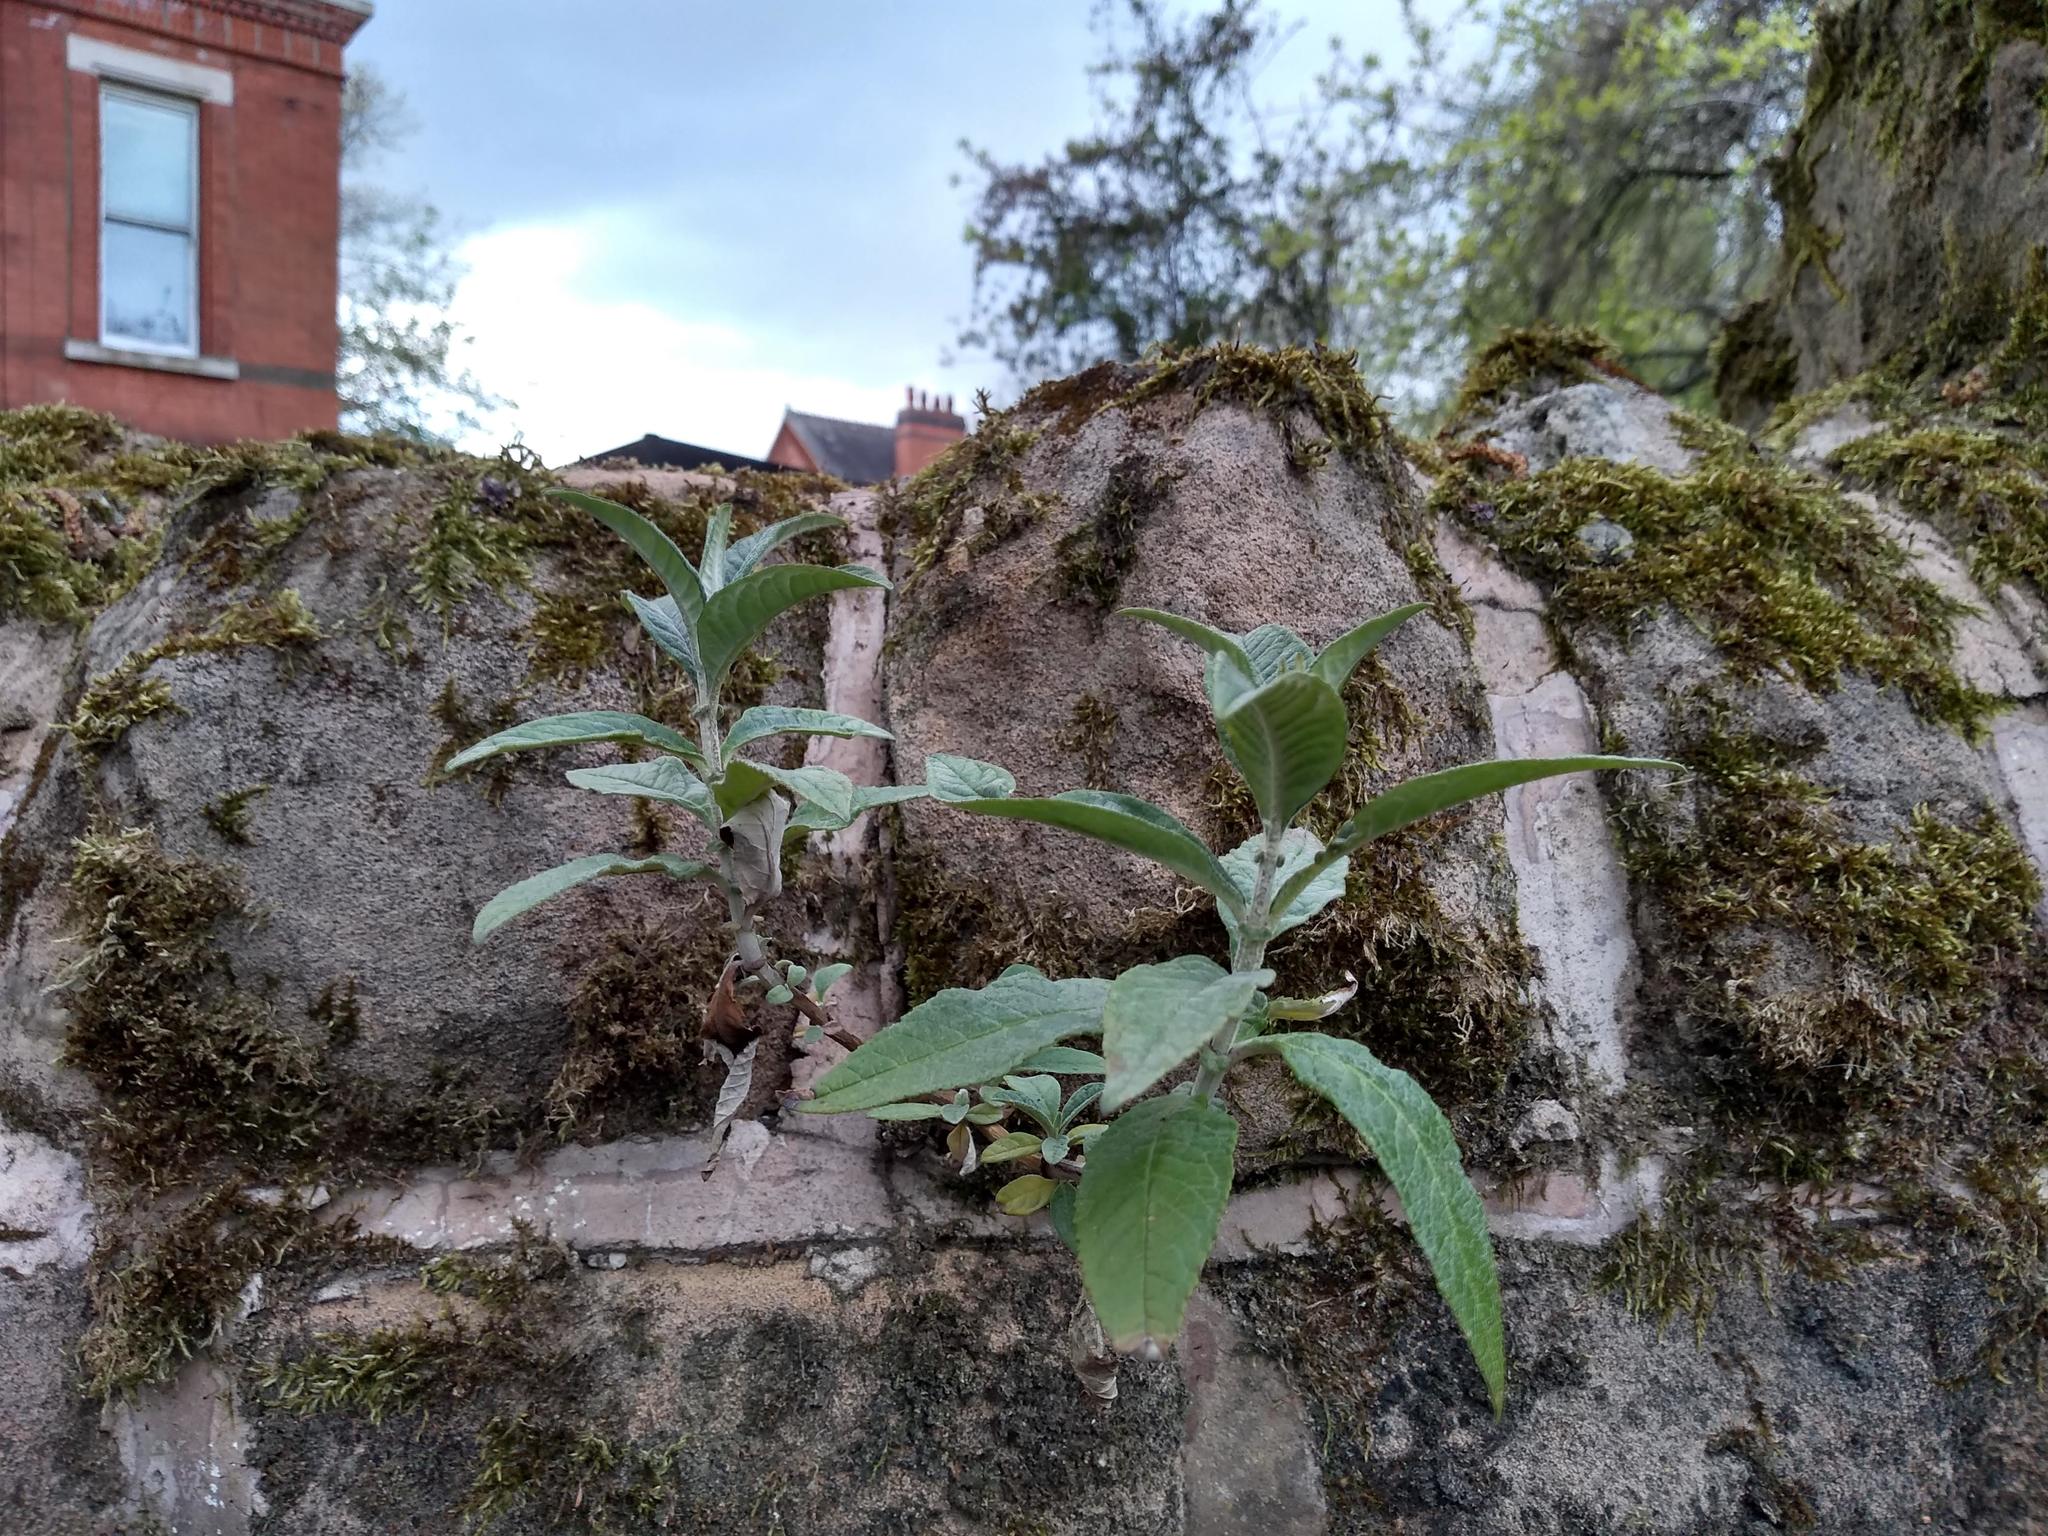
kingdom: Plantae
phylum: Tracheophyta
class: Magnoliopsida
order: Lamiales
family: Scrophulariaceae
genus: Buddleja
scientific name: Buddleja davidii
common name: Butterfly-bush
